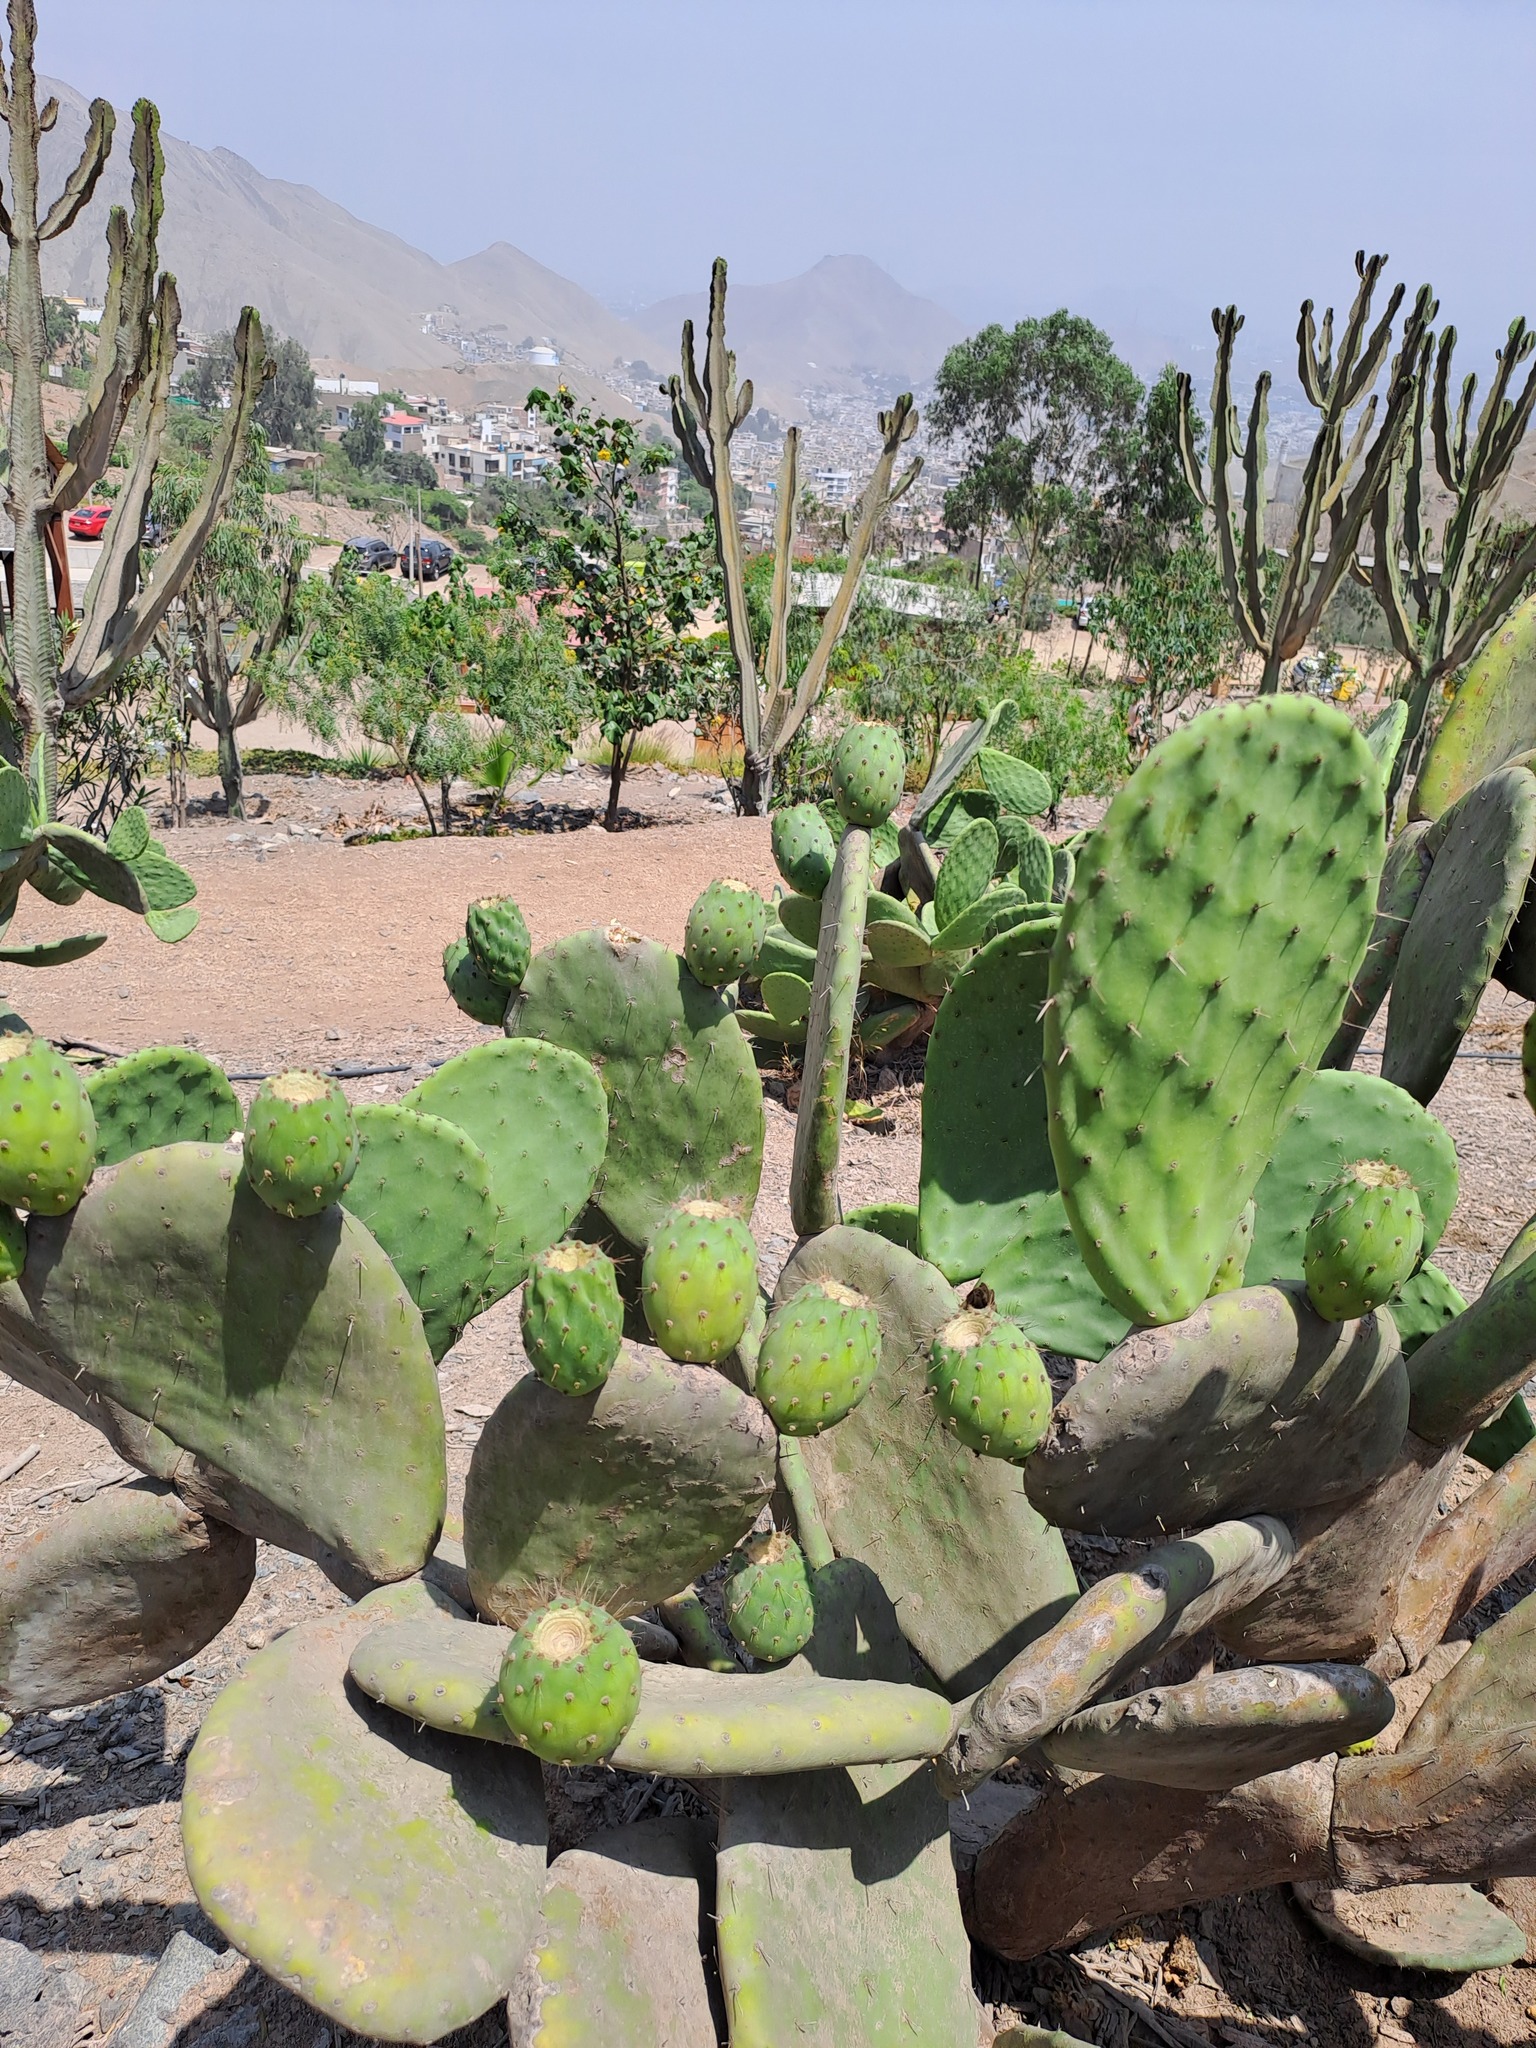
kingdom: Plantae
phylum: Tracheophyta
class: Magnoliopsida
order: Caryophyllales
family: Cactaceae
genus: Opuntia
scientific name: Opuntia ficus-indica
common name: Barbary fig
